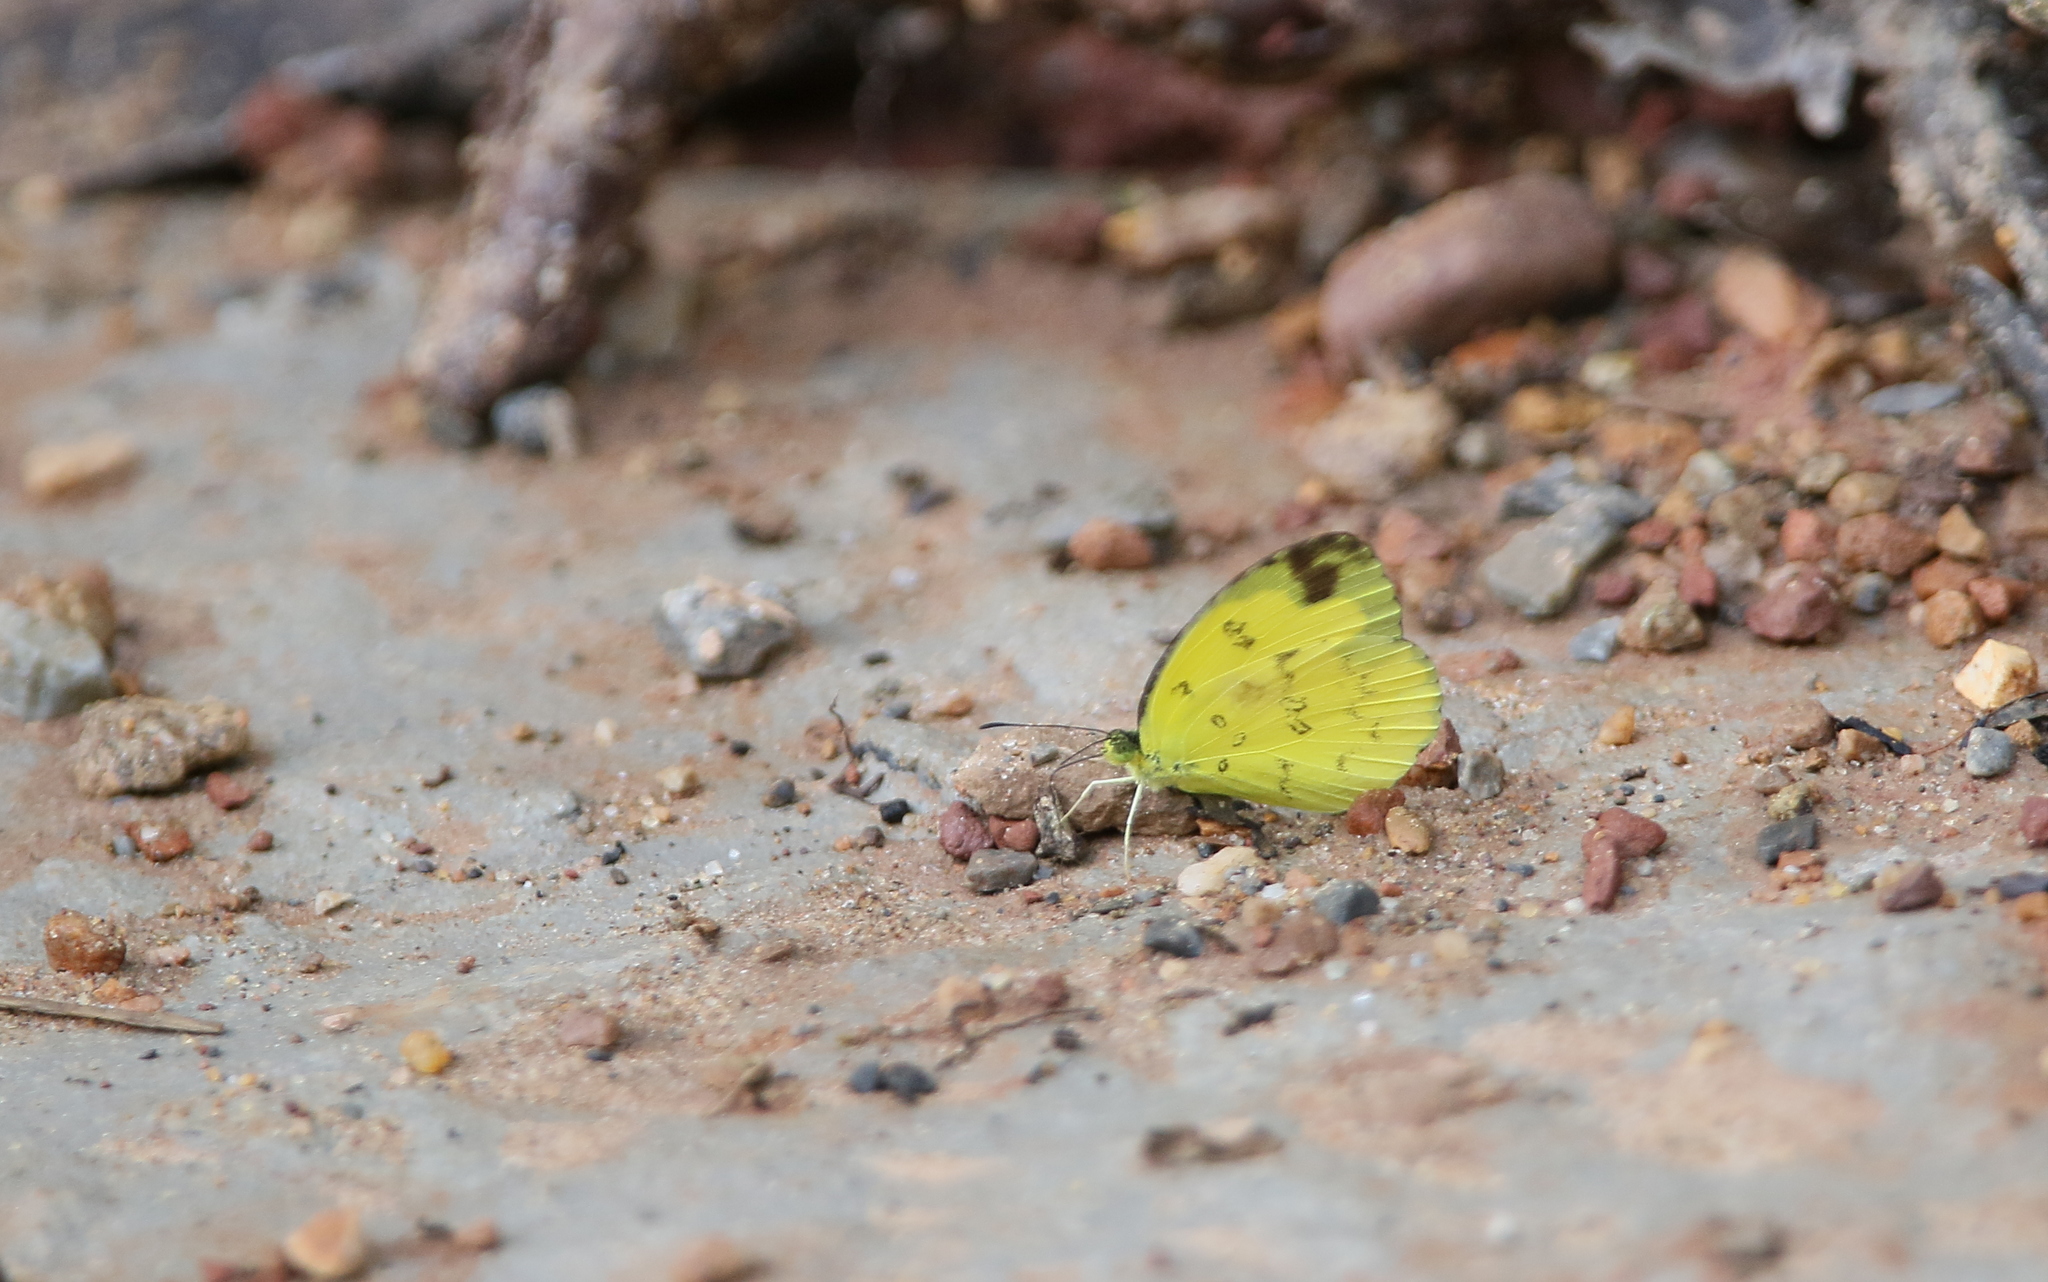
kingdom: Animalia
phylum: Arthropoda
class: Insecta
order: Lepidoptera
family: Pieridae
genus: Eurema
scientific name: Eurema hecabe
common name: Pale grass yellow
